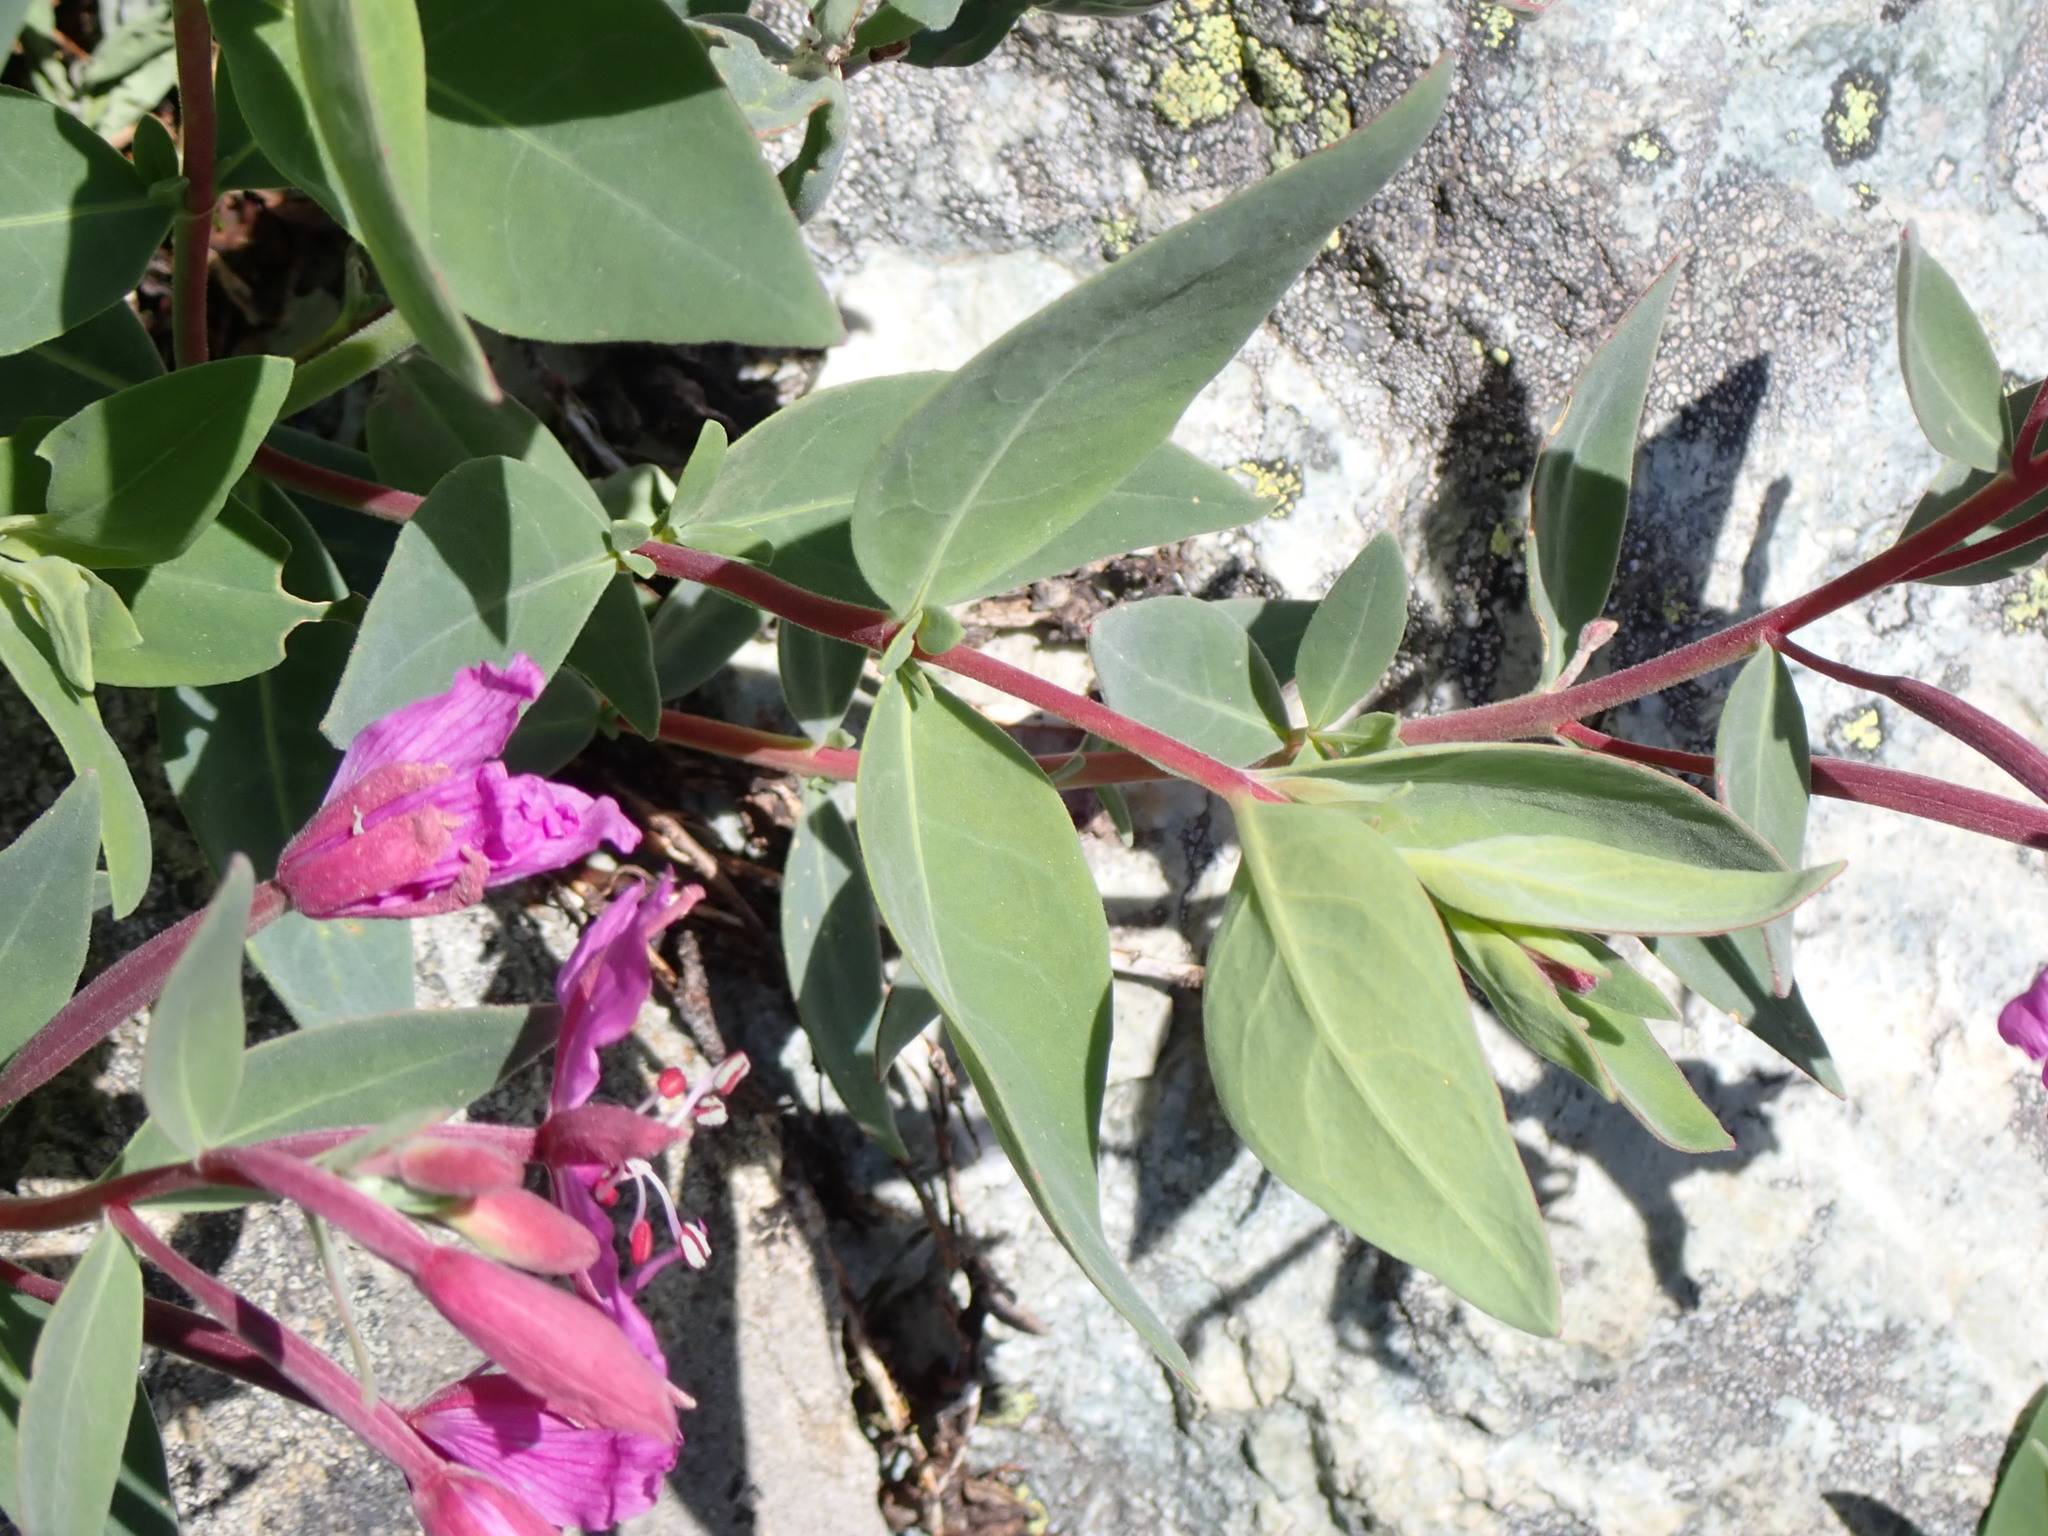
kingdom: Plantae
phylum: Tracheophyta
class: Magnoliopsida
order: Myrtales
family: Onagraceae
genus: Chamaenerion
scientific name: Chamaenerion latifolium
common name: Dwarf fireweed
